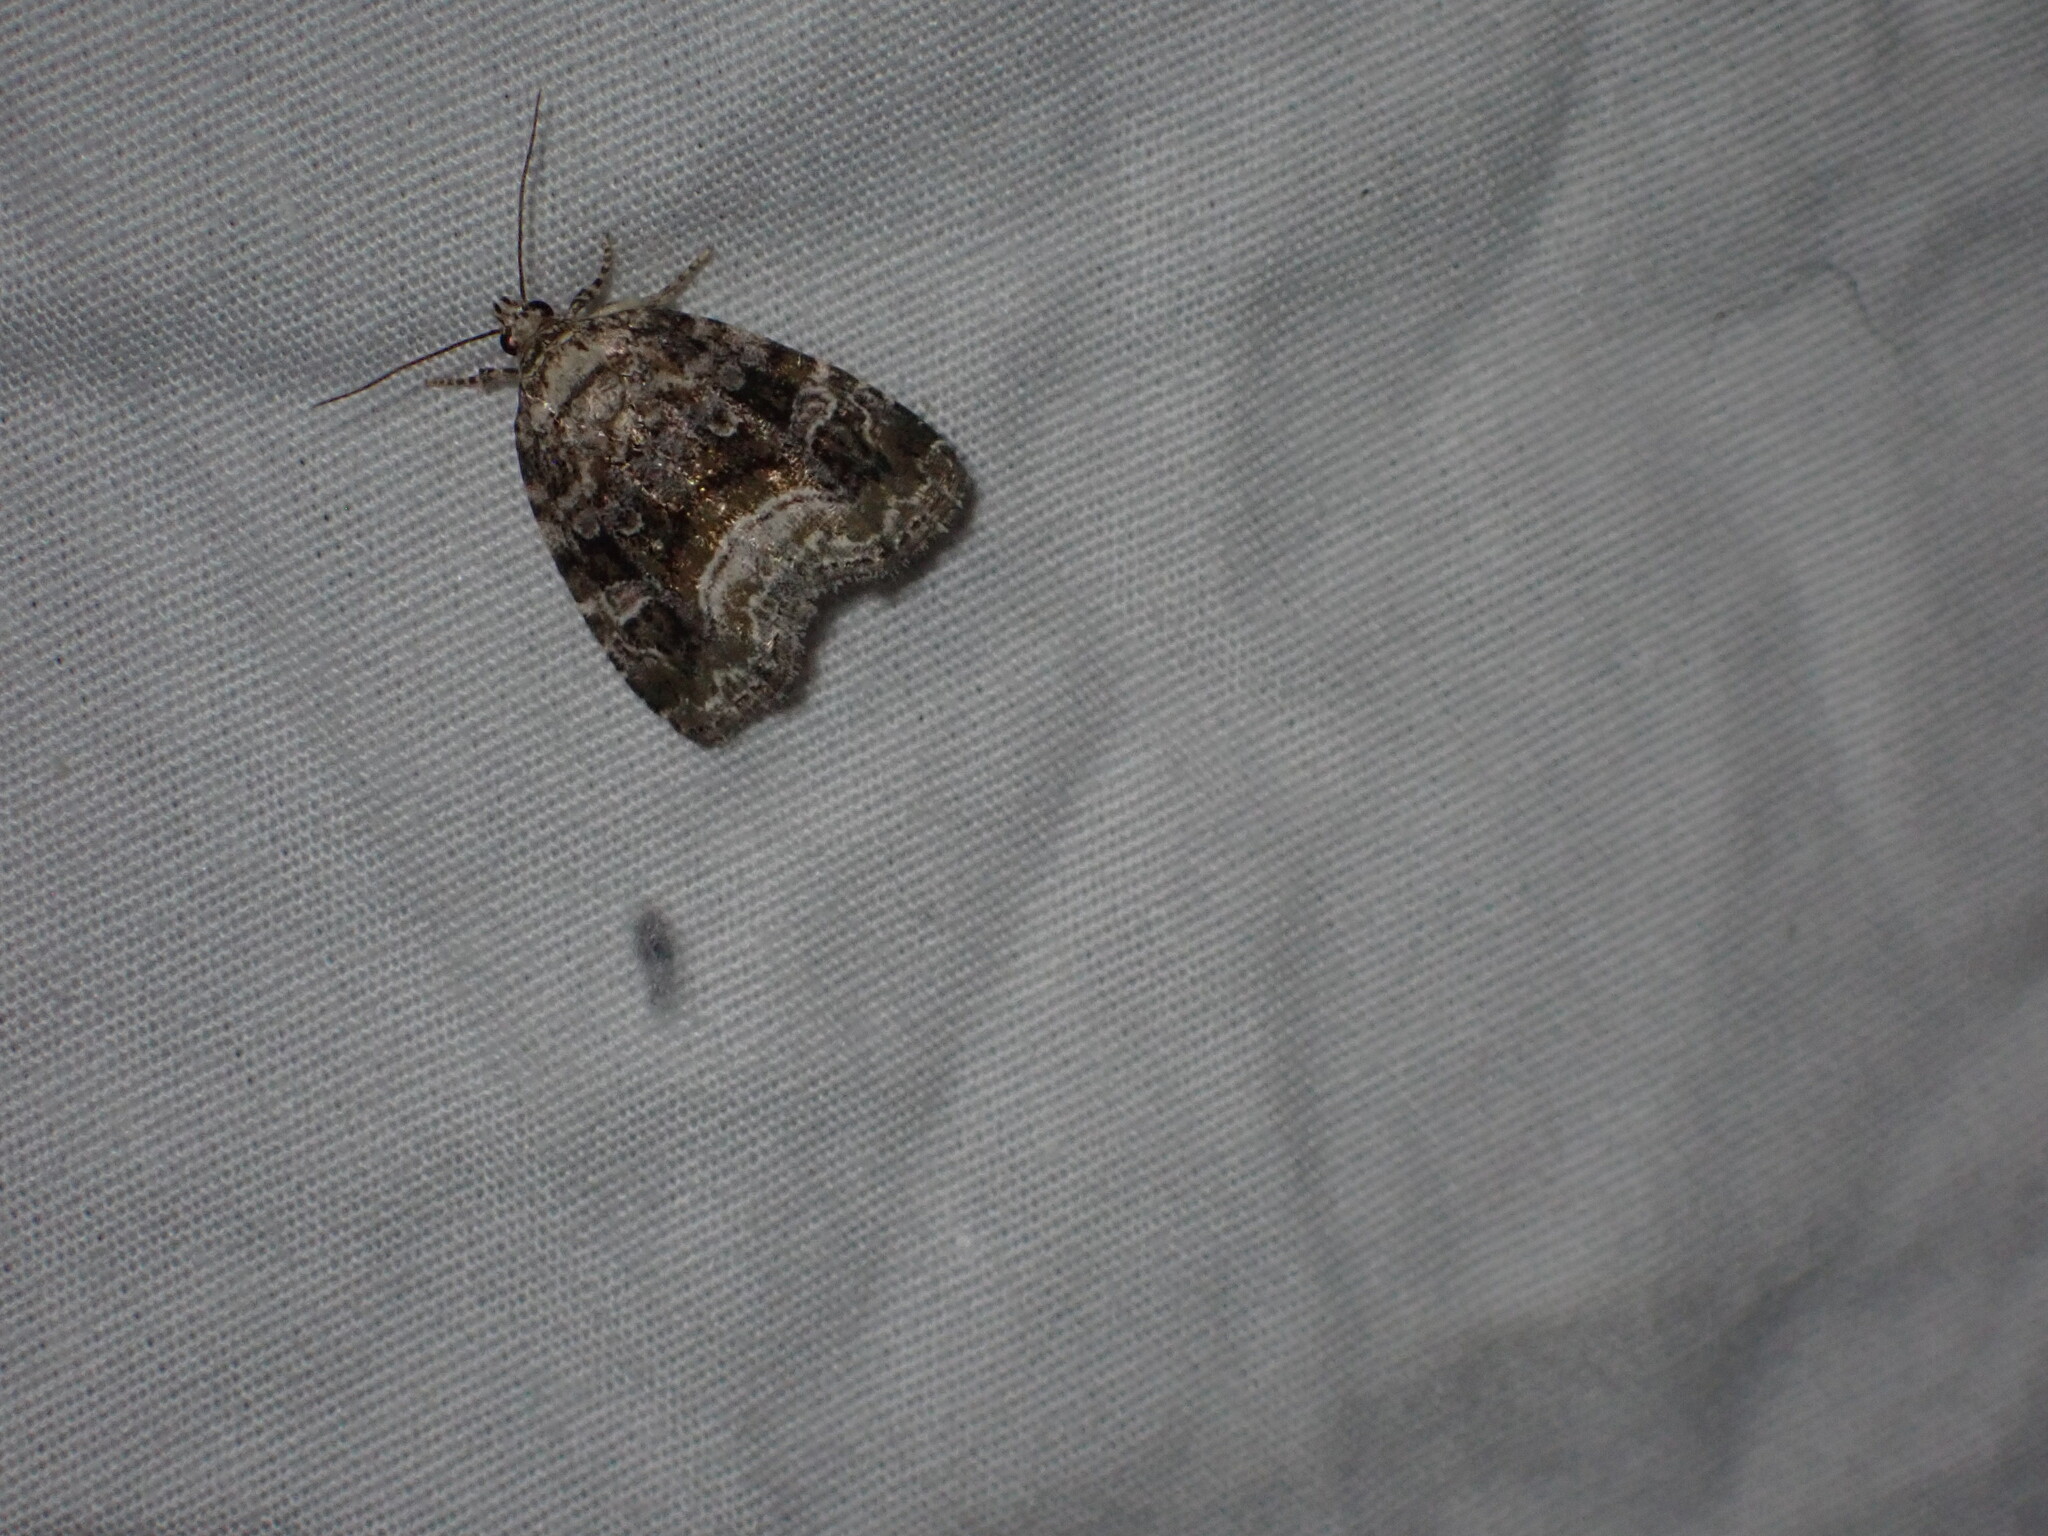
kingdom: Animalia
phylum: Arthropoda
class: Insecta
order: Lepidoptera
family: Noctuidae
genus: Protodeltote
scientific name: Protodeltote muscosula
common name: Large mossy glyph
